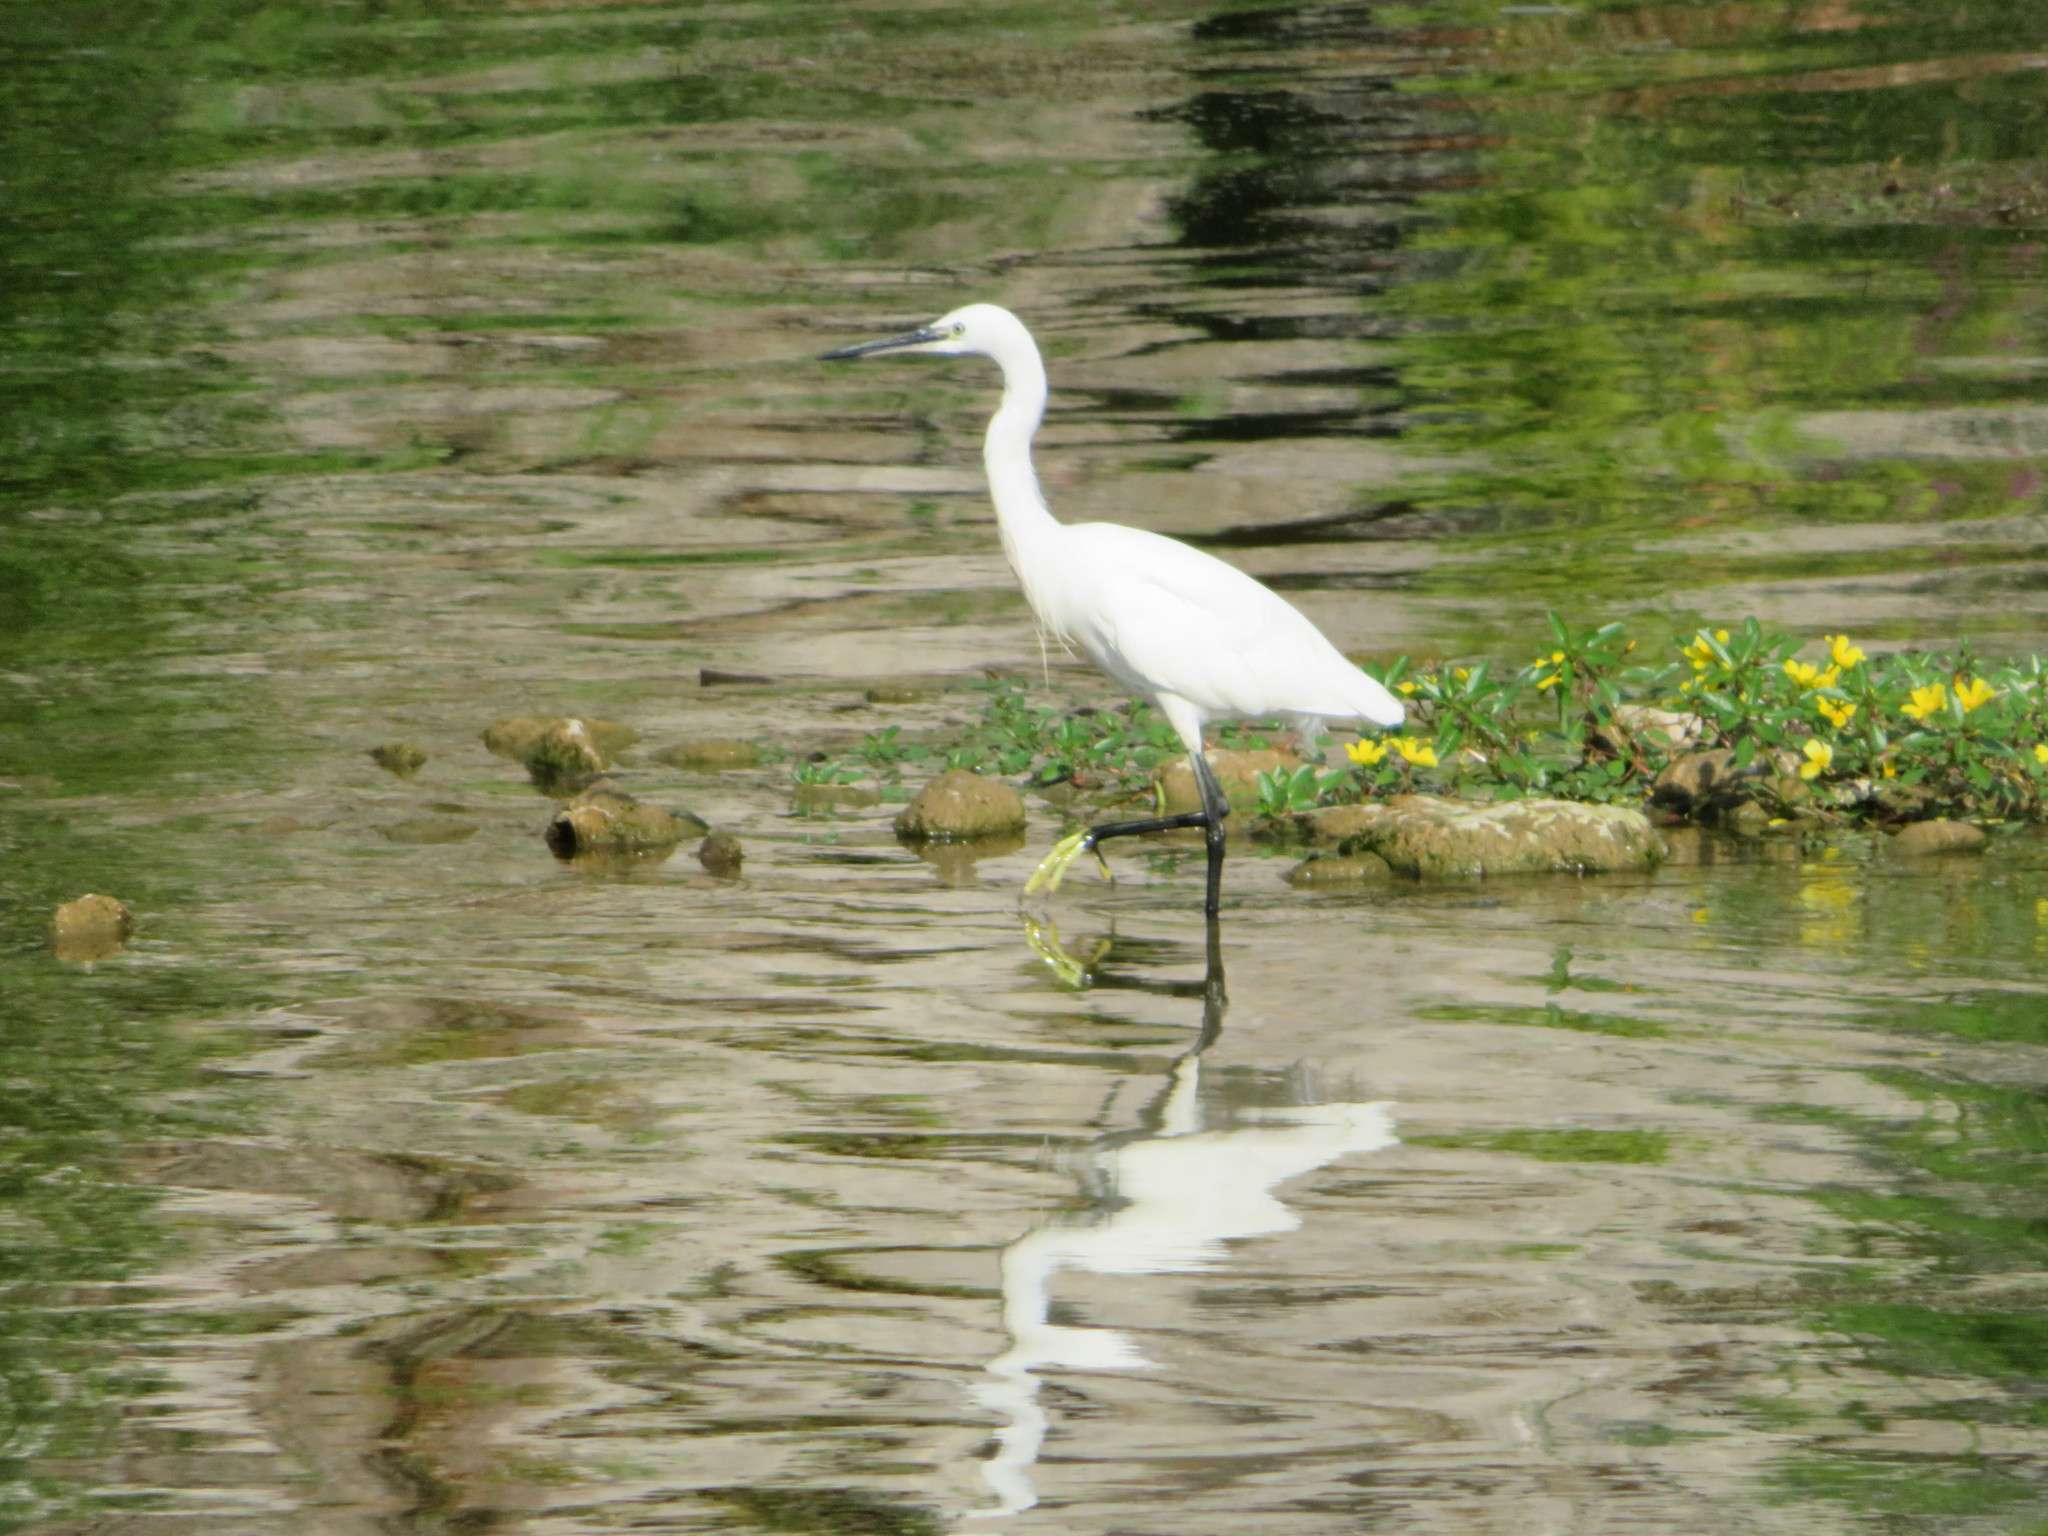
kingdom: Animalia
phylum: Chordata
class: Aves
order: Pelecaniformes
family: Ardeidae
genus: Egretta
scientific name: Egretta garzetta
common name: Little egret
